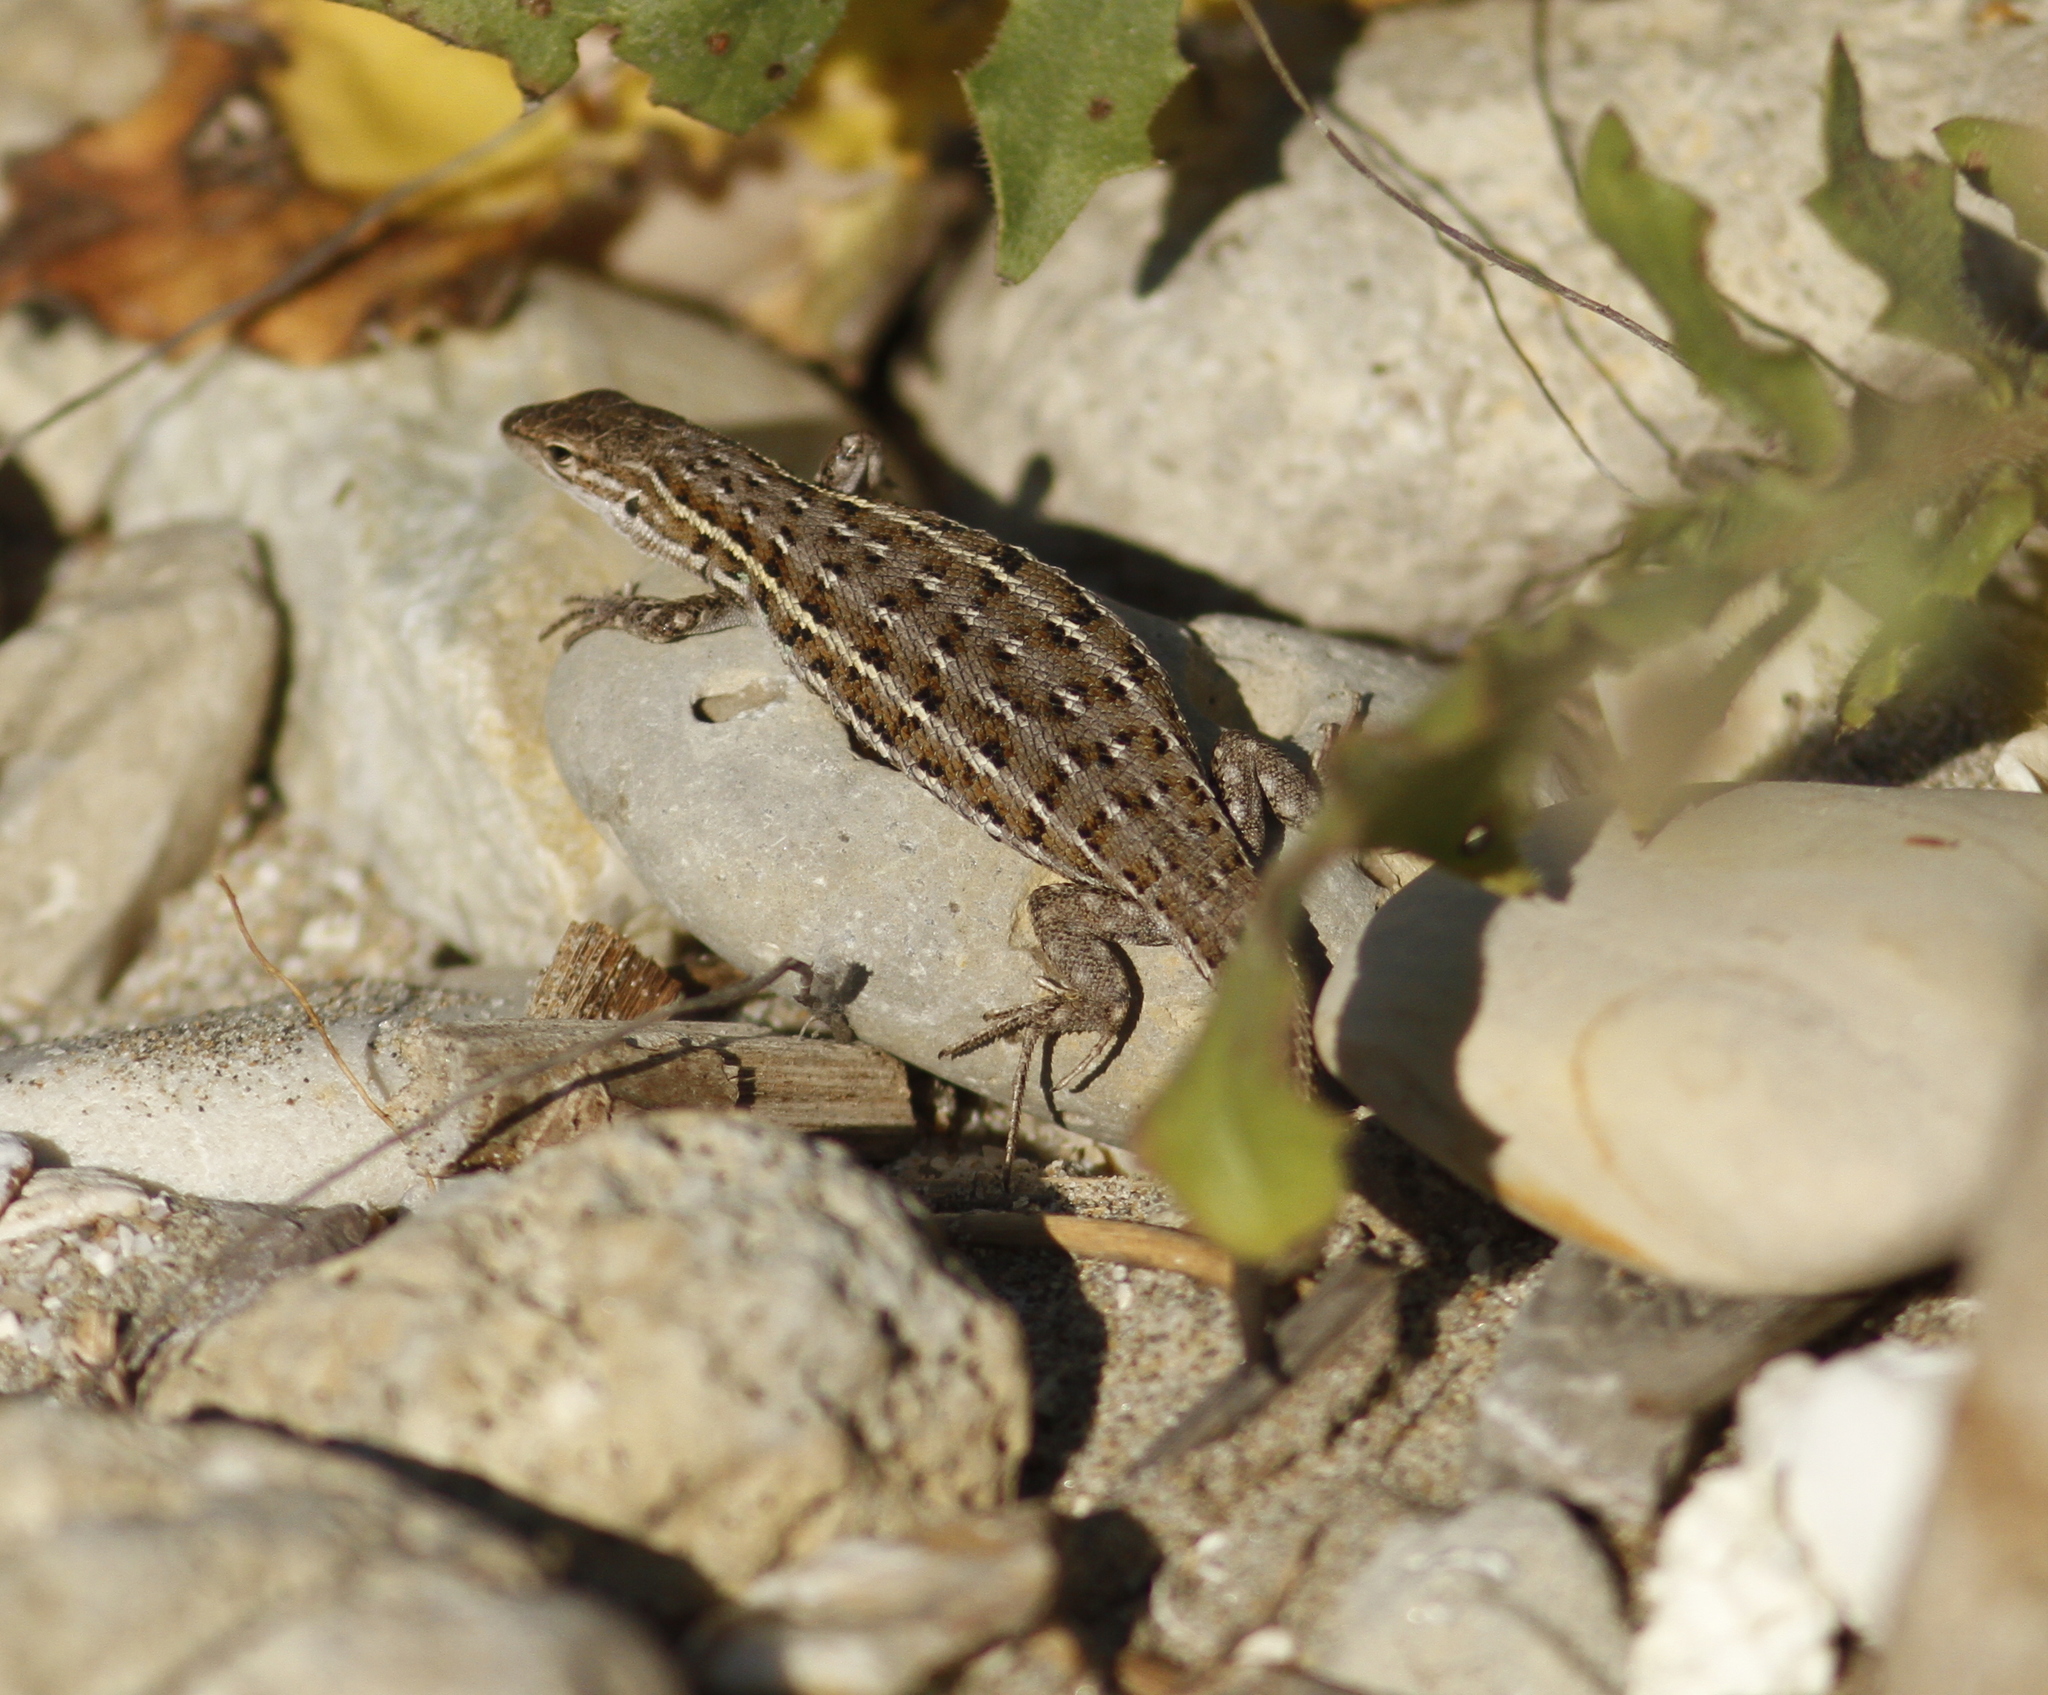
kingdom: Animalia
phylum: Chordata
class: Squamata
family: Lacertidae
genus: Psammodromus
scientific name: Psammodromus edwarsianus
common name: East iberian psammodromus
